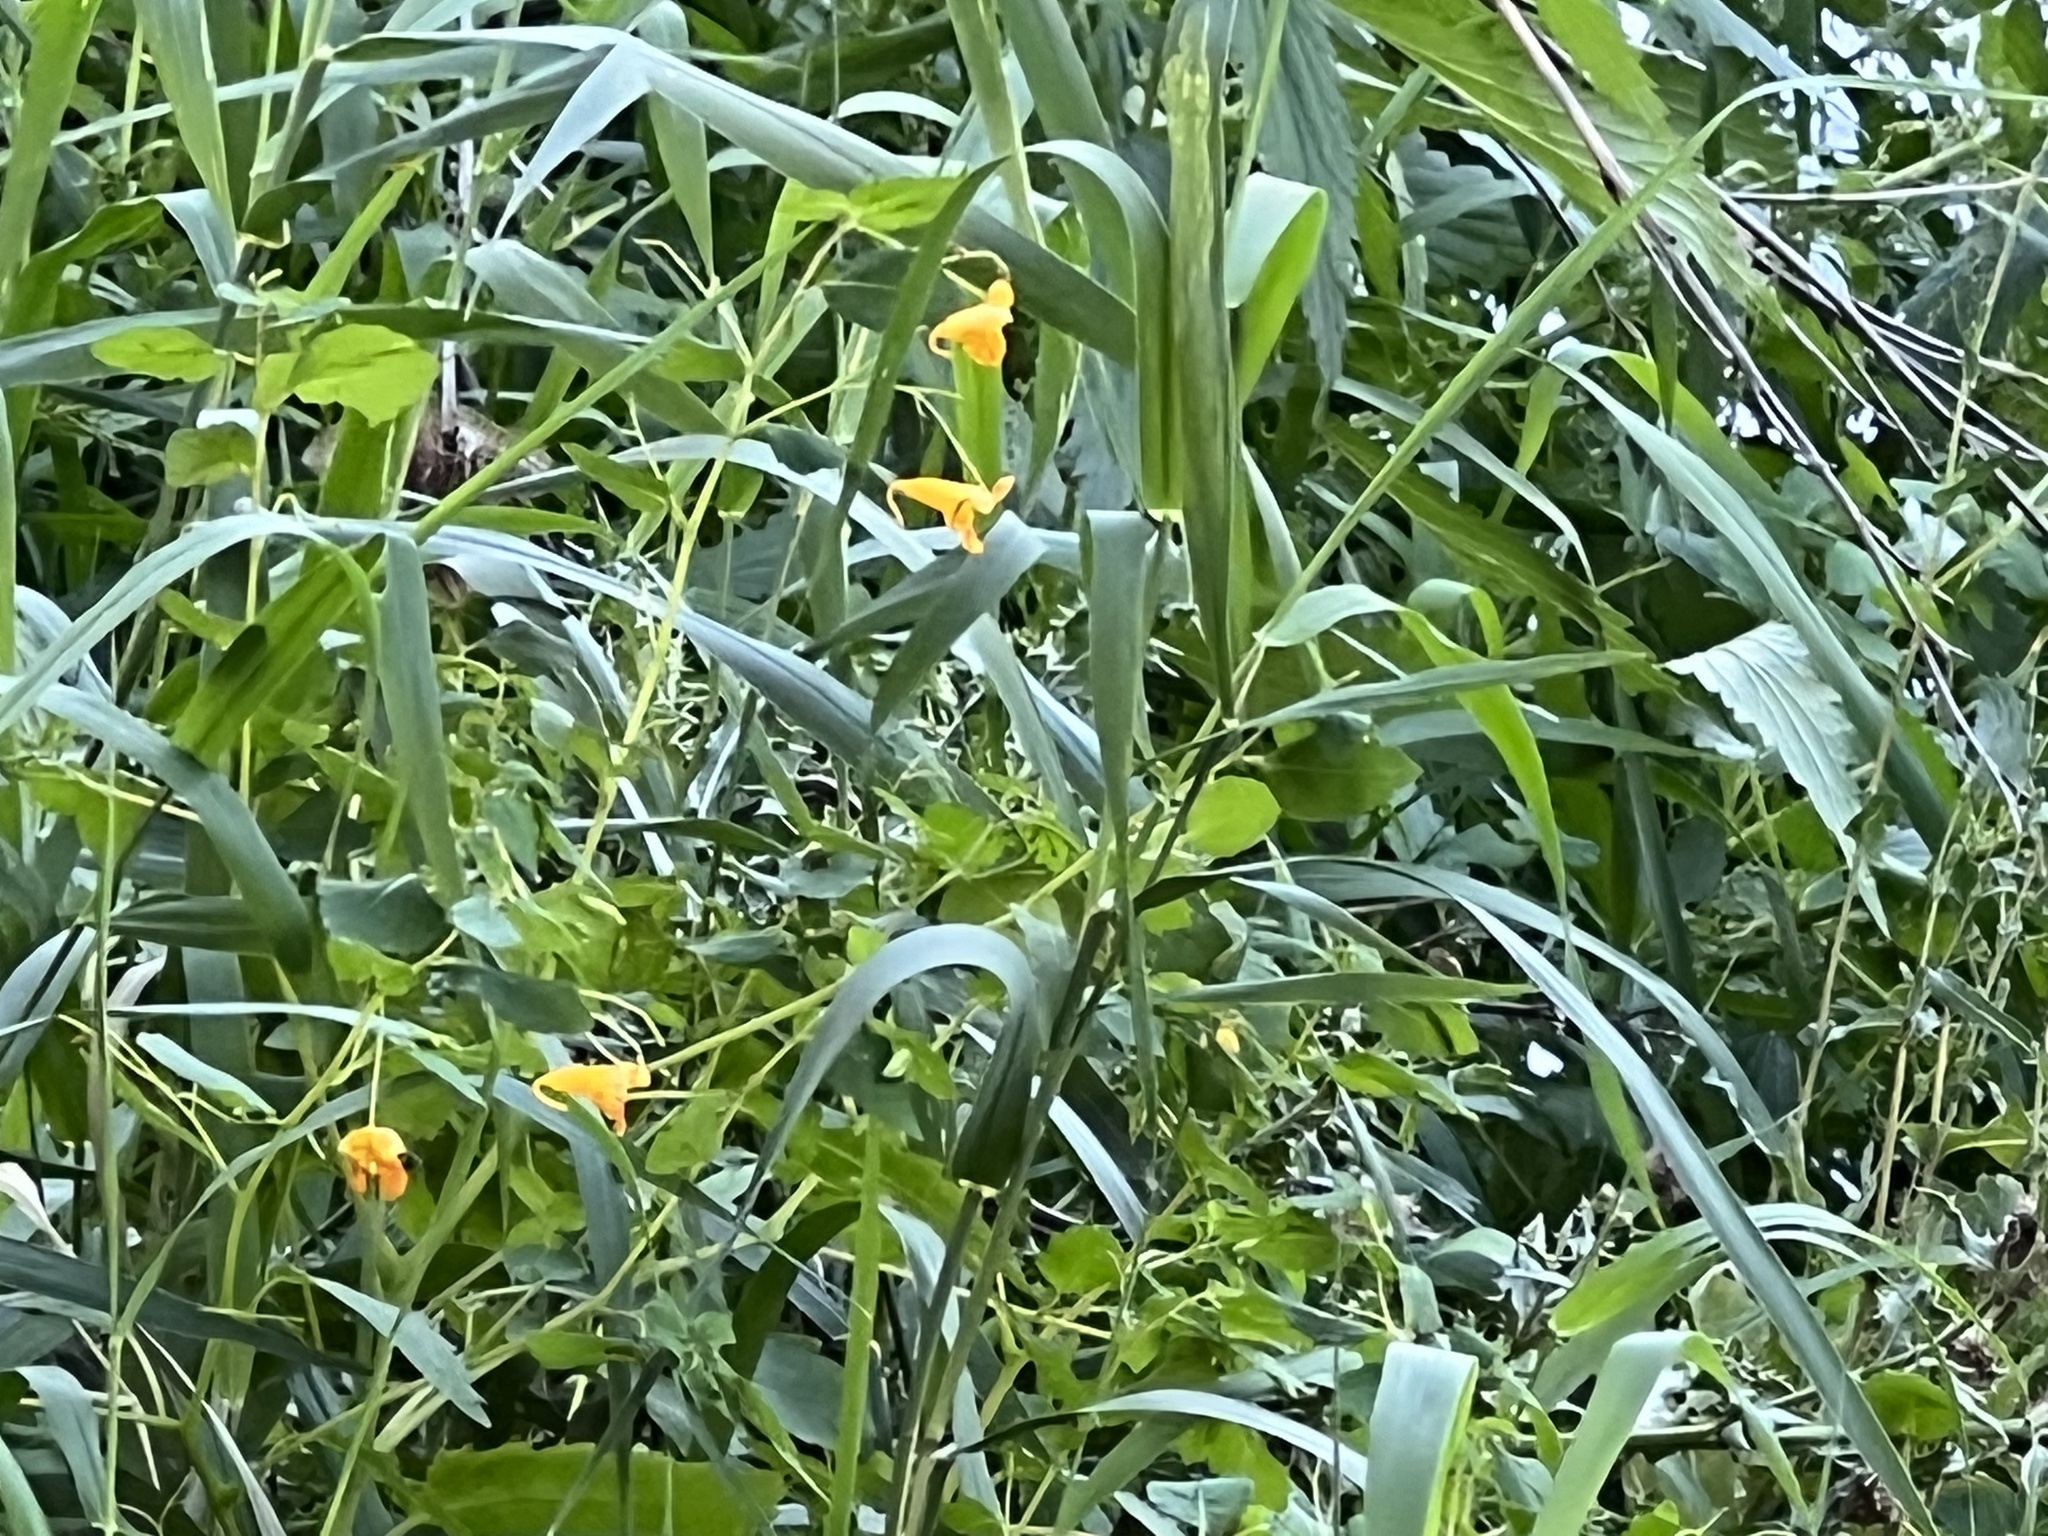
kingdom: Plantae
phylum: Tracheophyta
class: Magnoliopsida
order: Ericales
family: Balsaminaceae
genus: Impatiens
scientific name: Impatiens capensis
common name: Orange balsam
